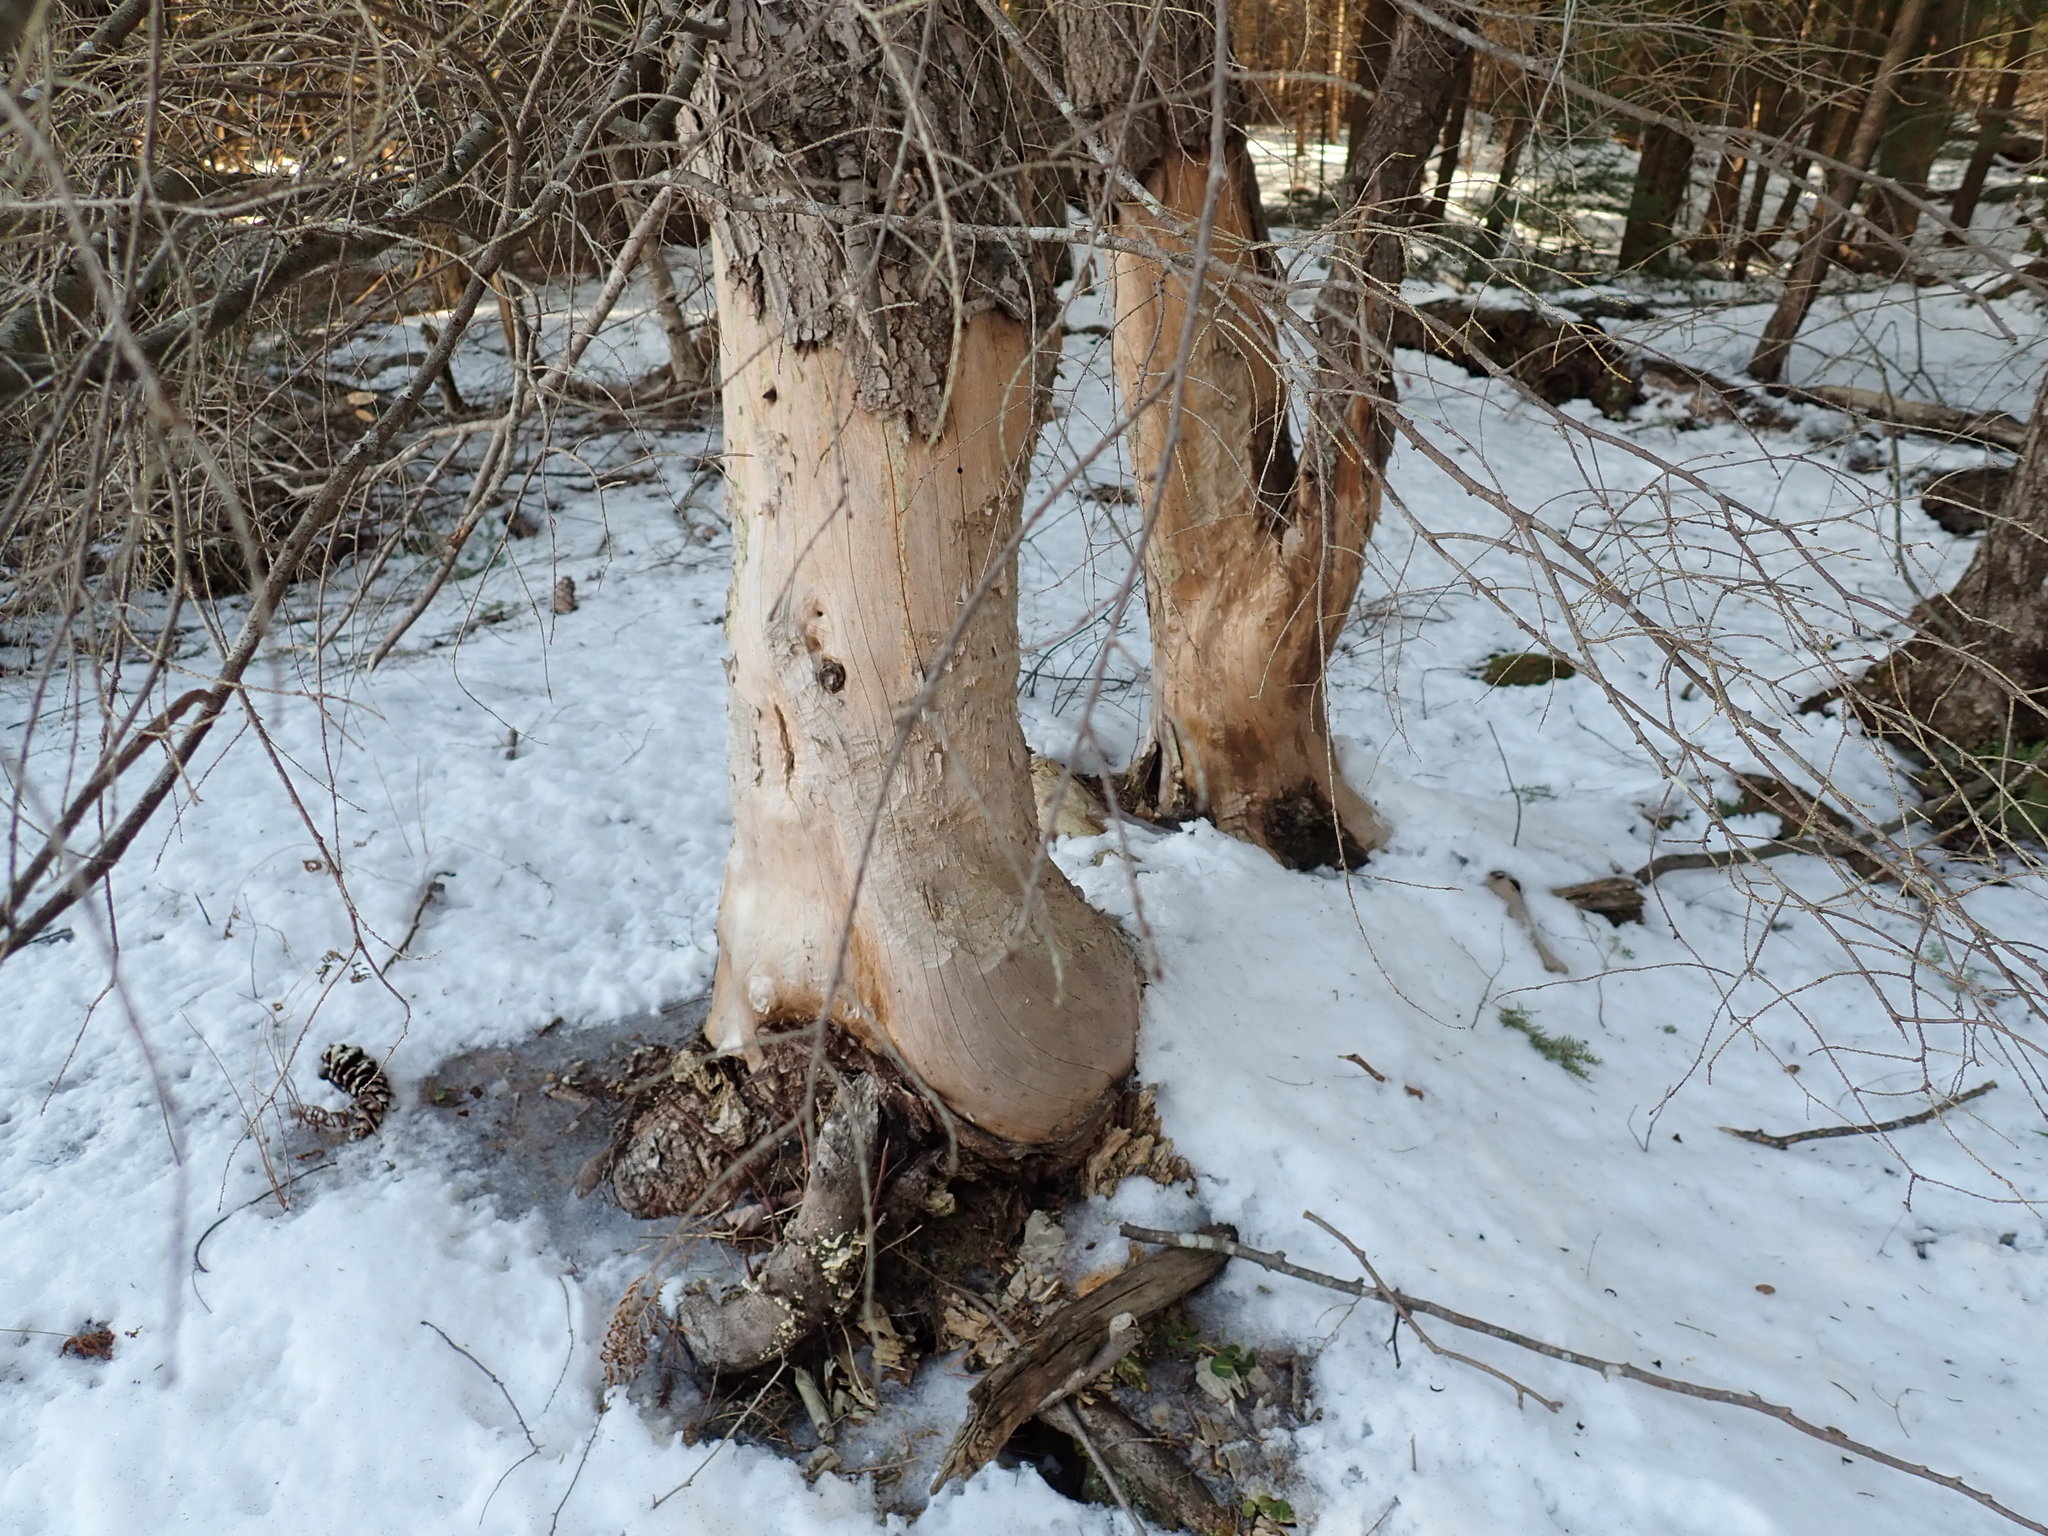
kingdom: Animalia
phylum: Chordata
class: Mammalia
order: Rodentia
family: Castoridae
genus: Castor
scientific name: Castor canadensis
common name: American beaver
